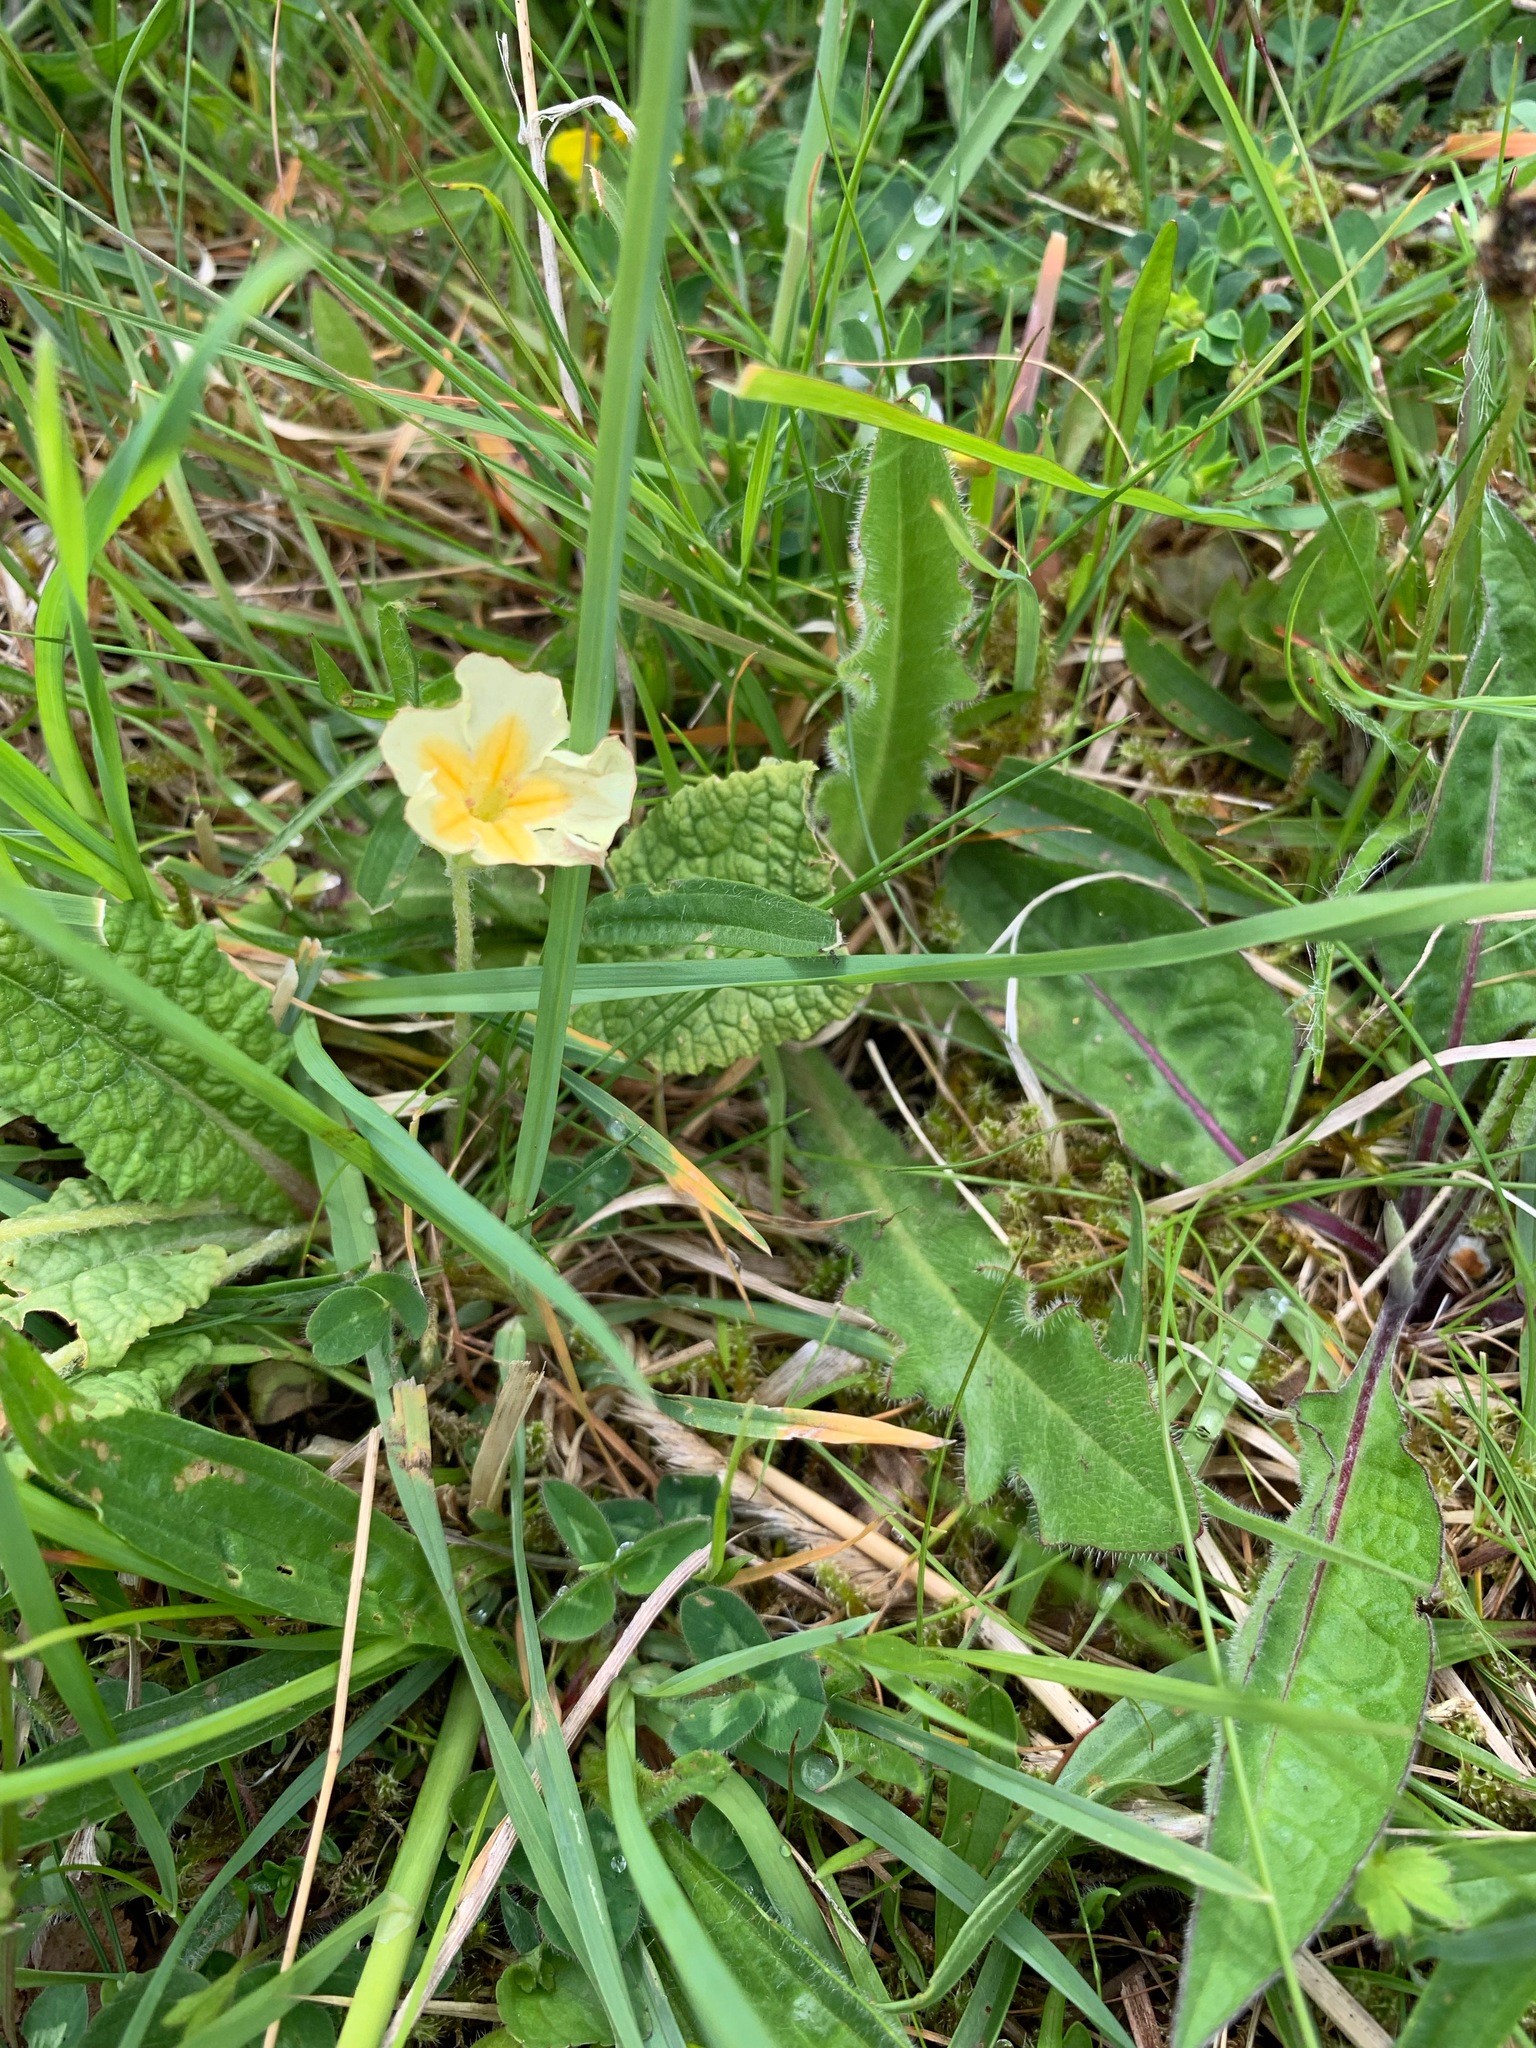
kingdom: Plantae
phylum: Tracheophyta
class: Magnoliopsida
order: Ericales
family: Primulaceae
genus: Primula
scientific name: Primula vulgaris
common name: Primrose
